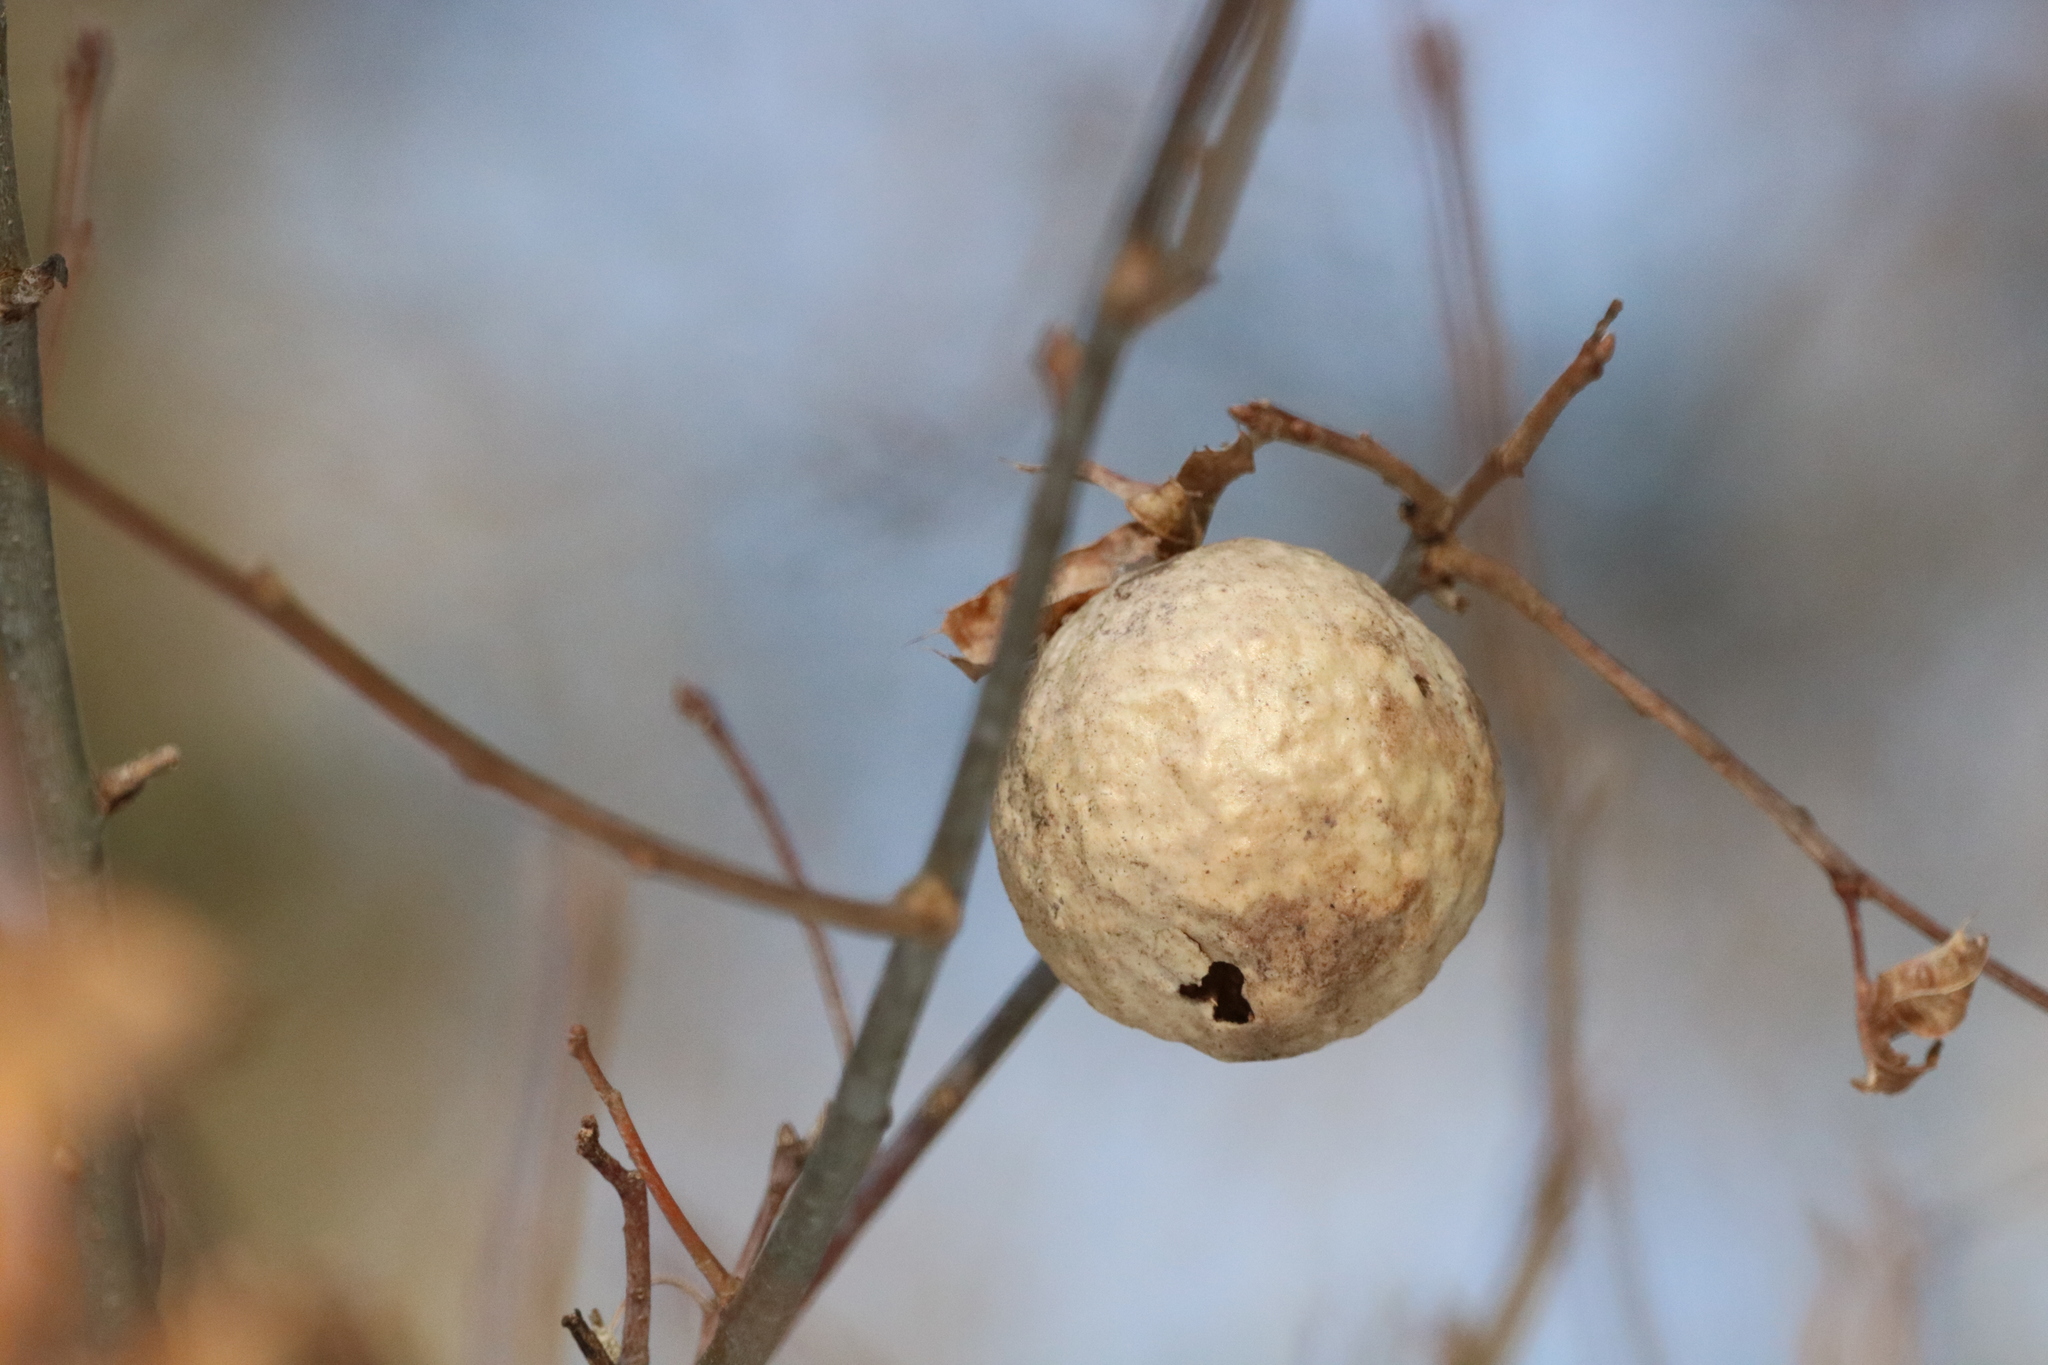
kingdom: Animalia
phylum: Arthropoda
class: Insecta
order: Hymenoptera
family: Cynipidae
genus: Amphibolips
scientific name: Amphibolips
